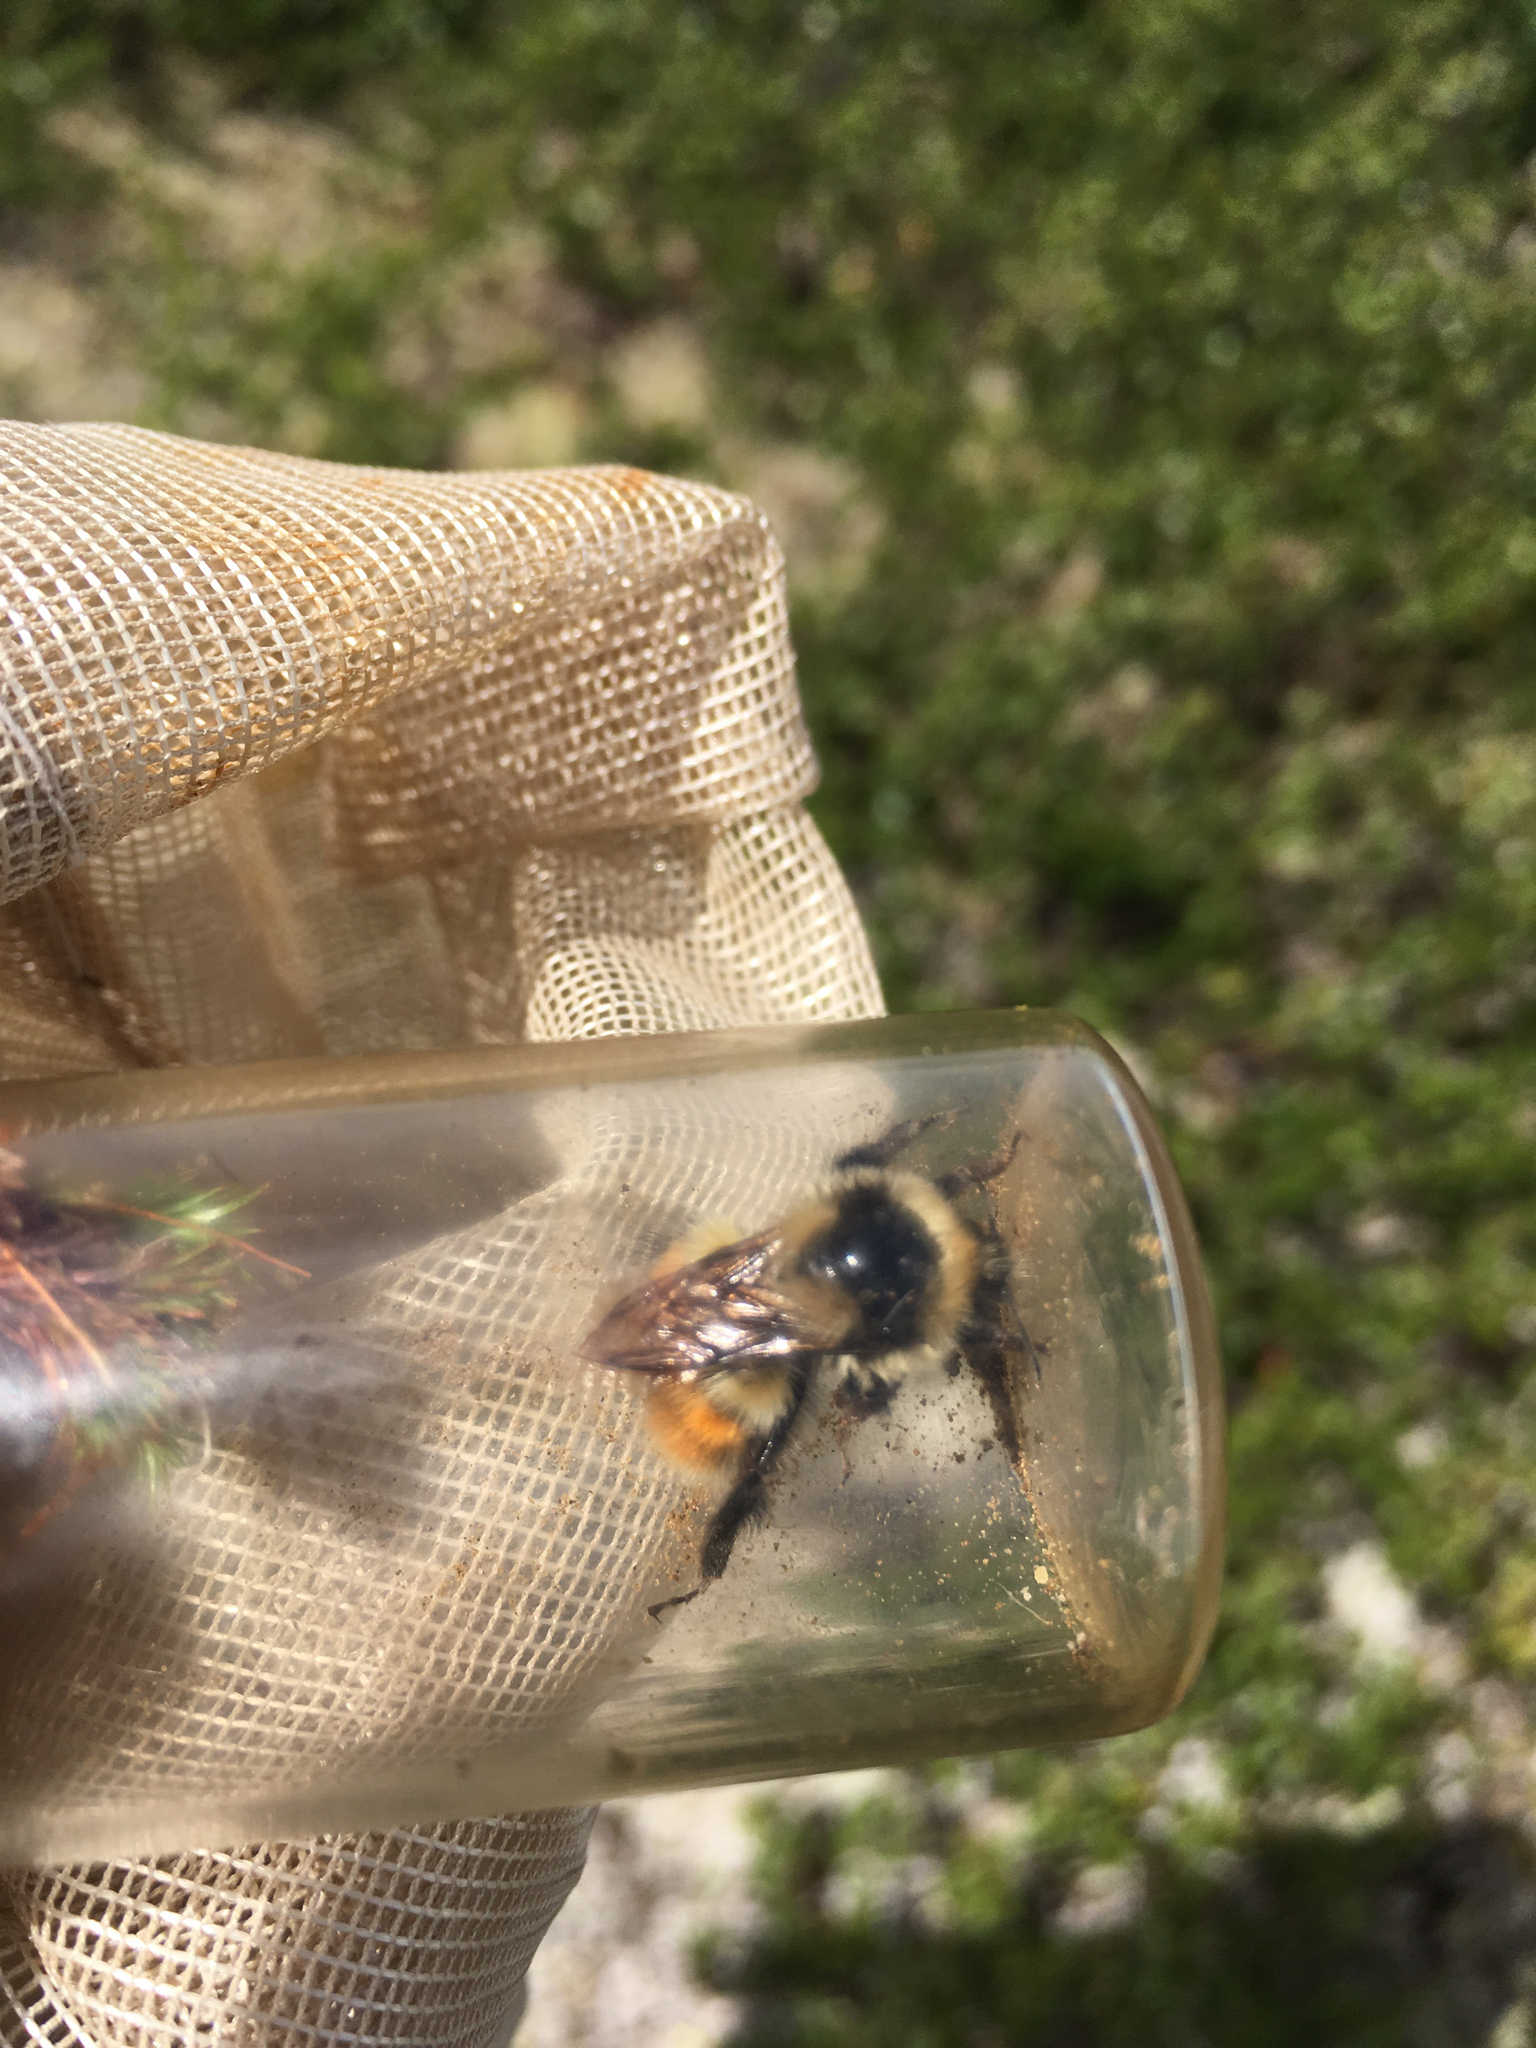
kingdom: Animalia
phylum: Arthropoda
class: Insecta
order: Hymenoptera
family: Apidae
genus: Bombus
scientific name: Bombus sylvicola
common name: Forest bumble bee
